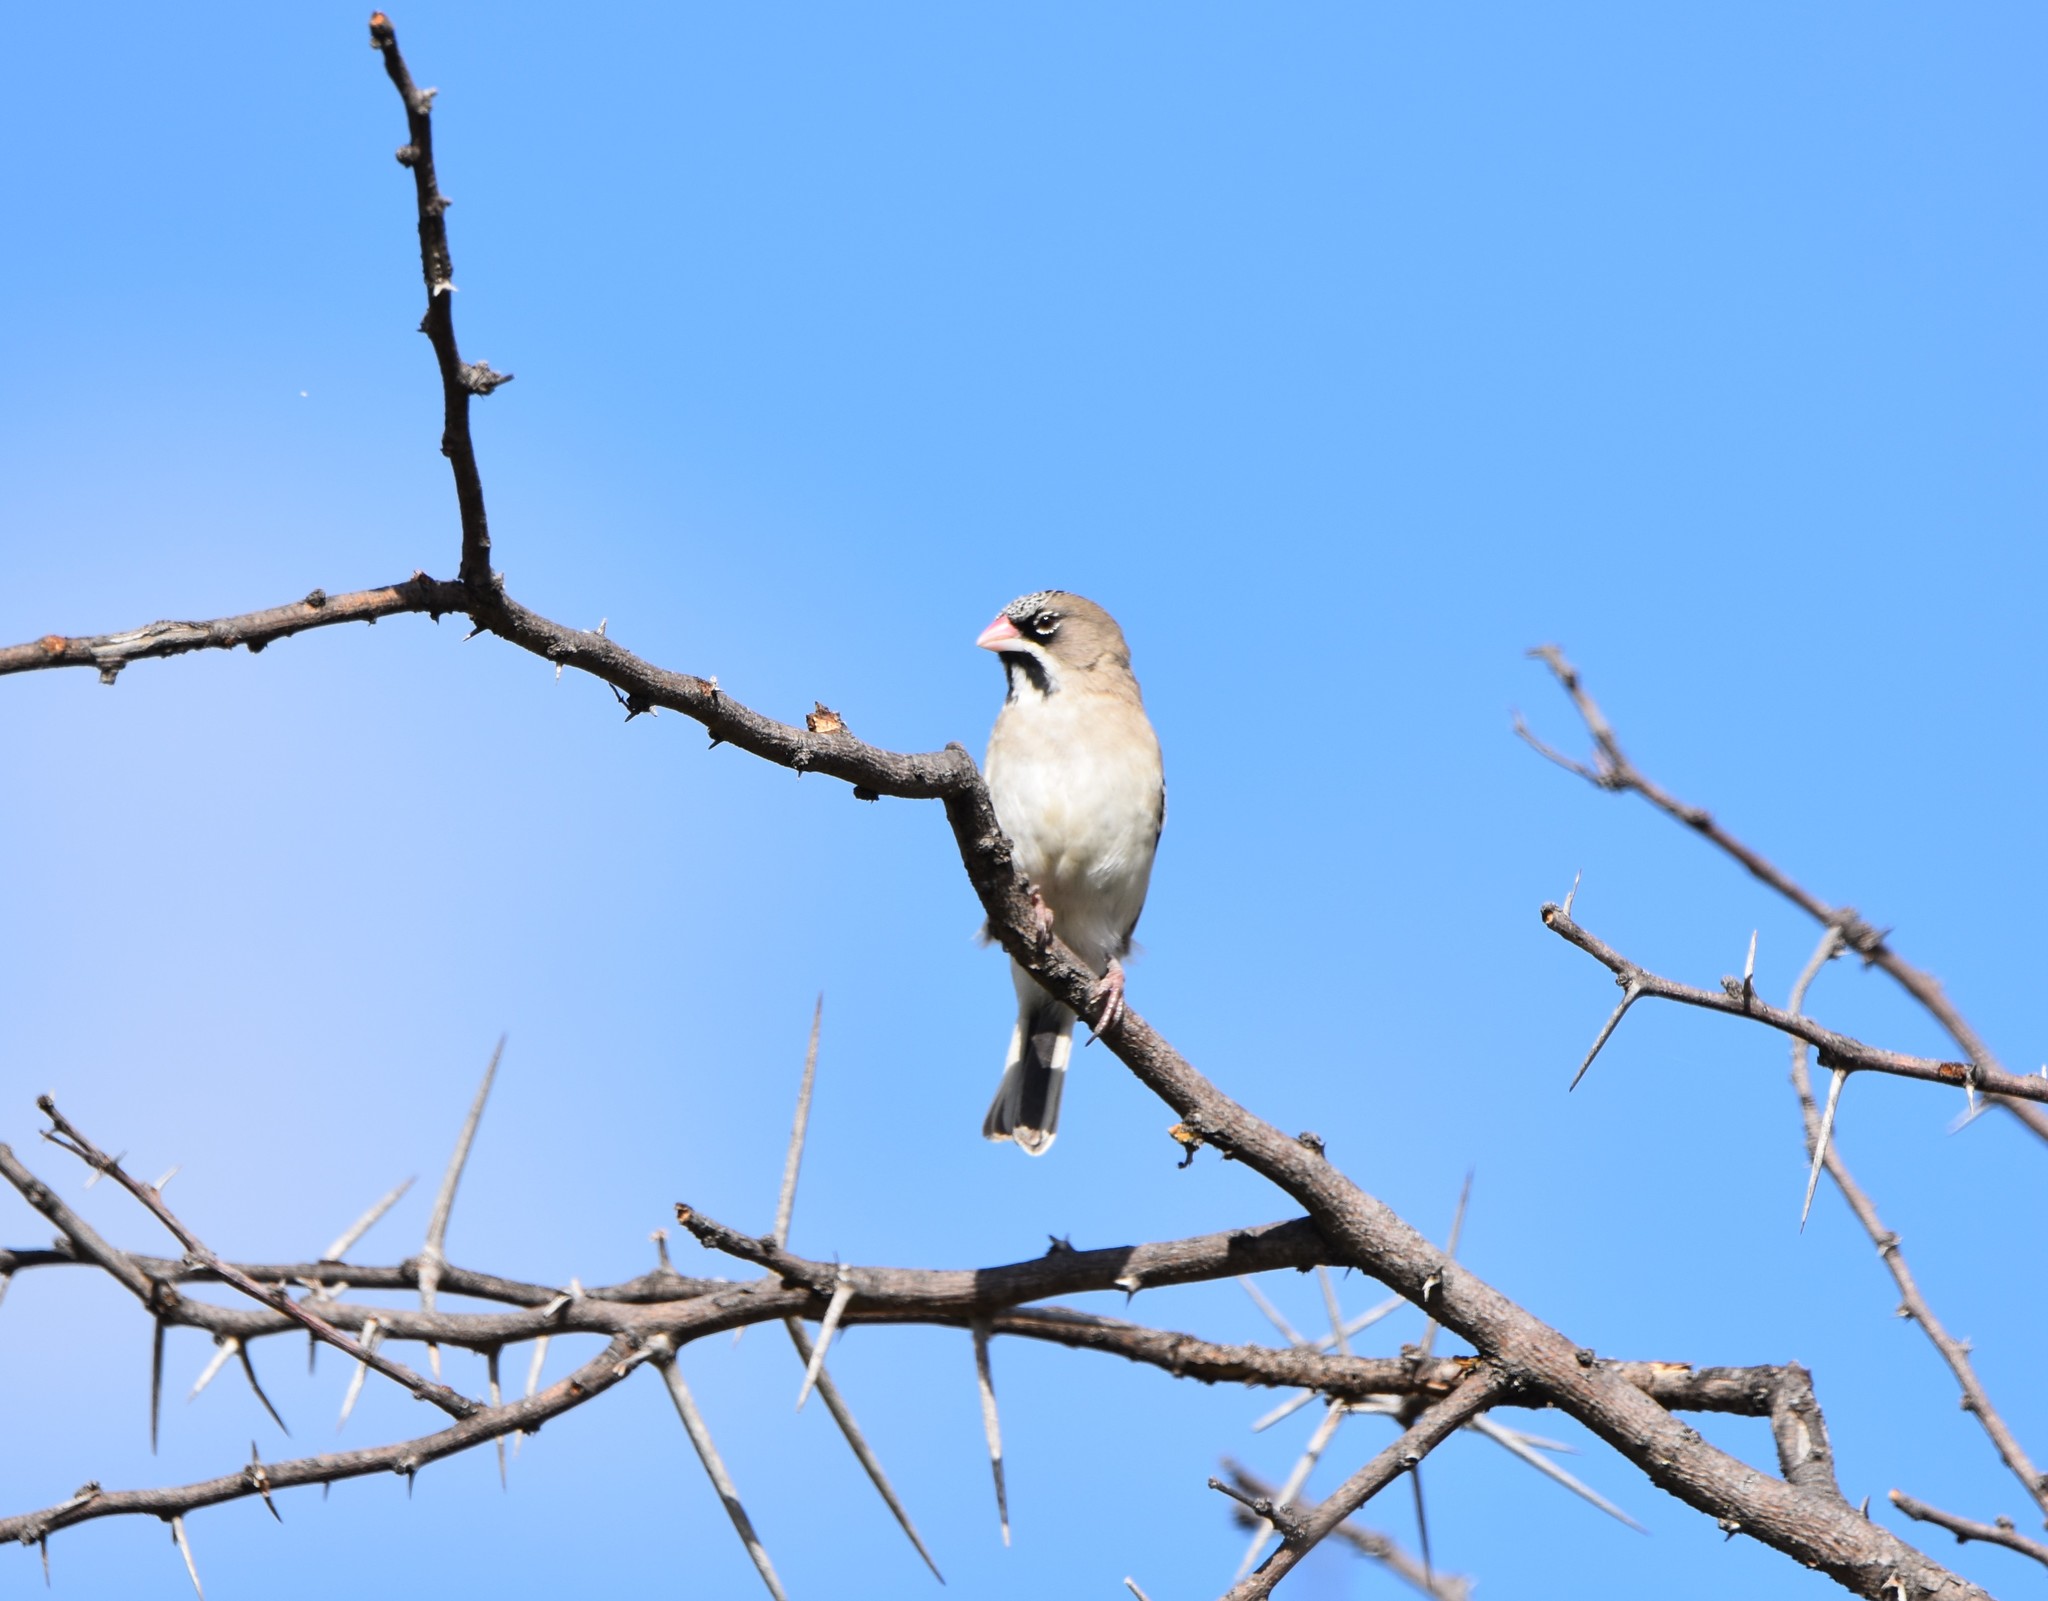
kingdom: Animalia
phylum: Chordata
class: Aves
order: Passeriformes
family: Ploceidae
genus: Sporopipes
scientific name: Sporopipes squamifrons
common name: Scaly-feathered weaver
